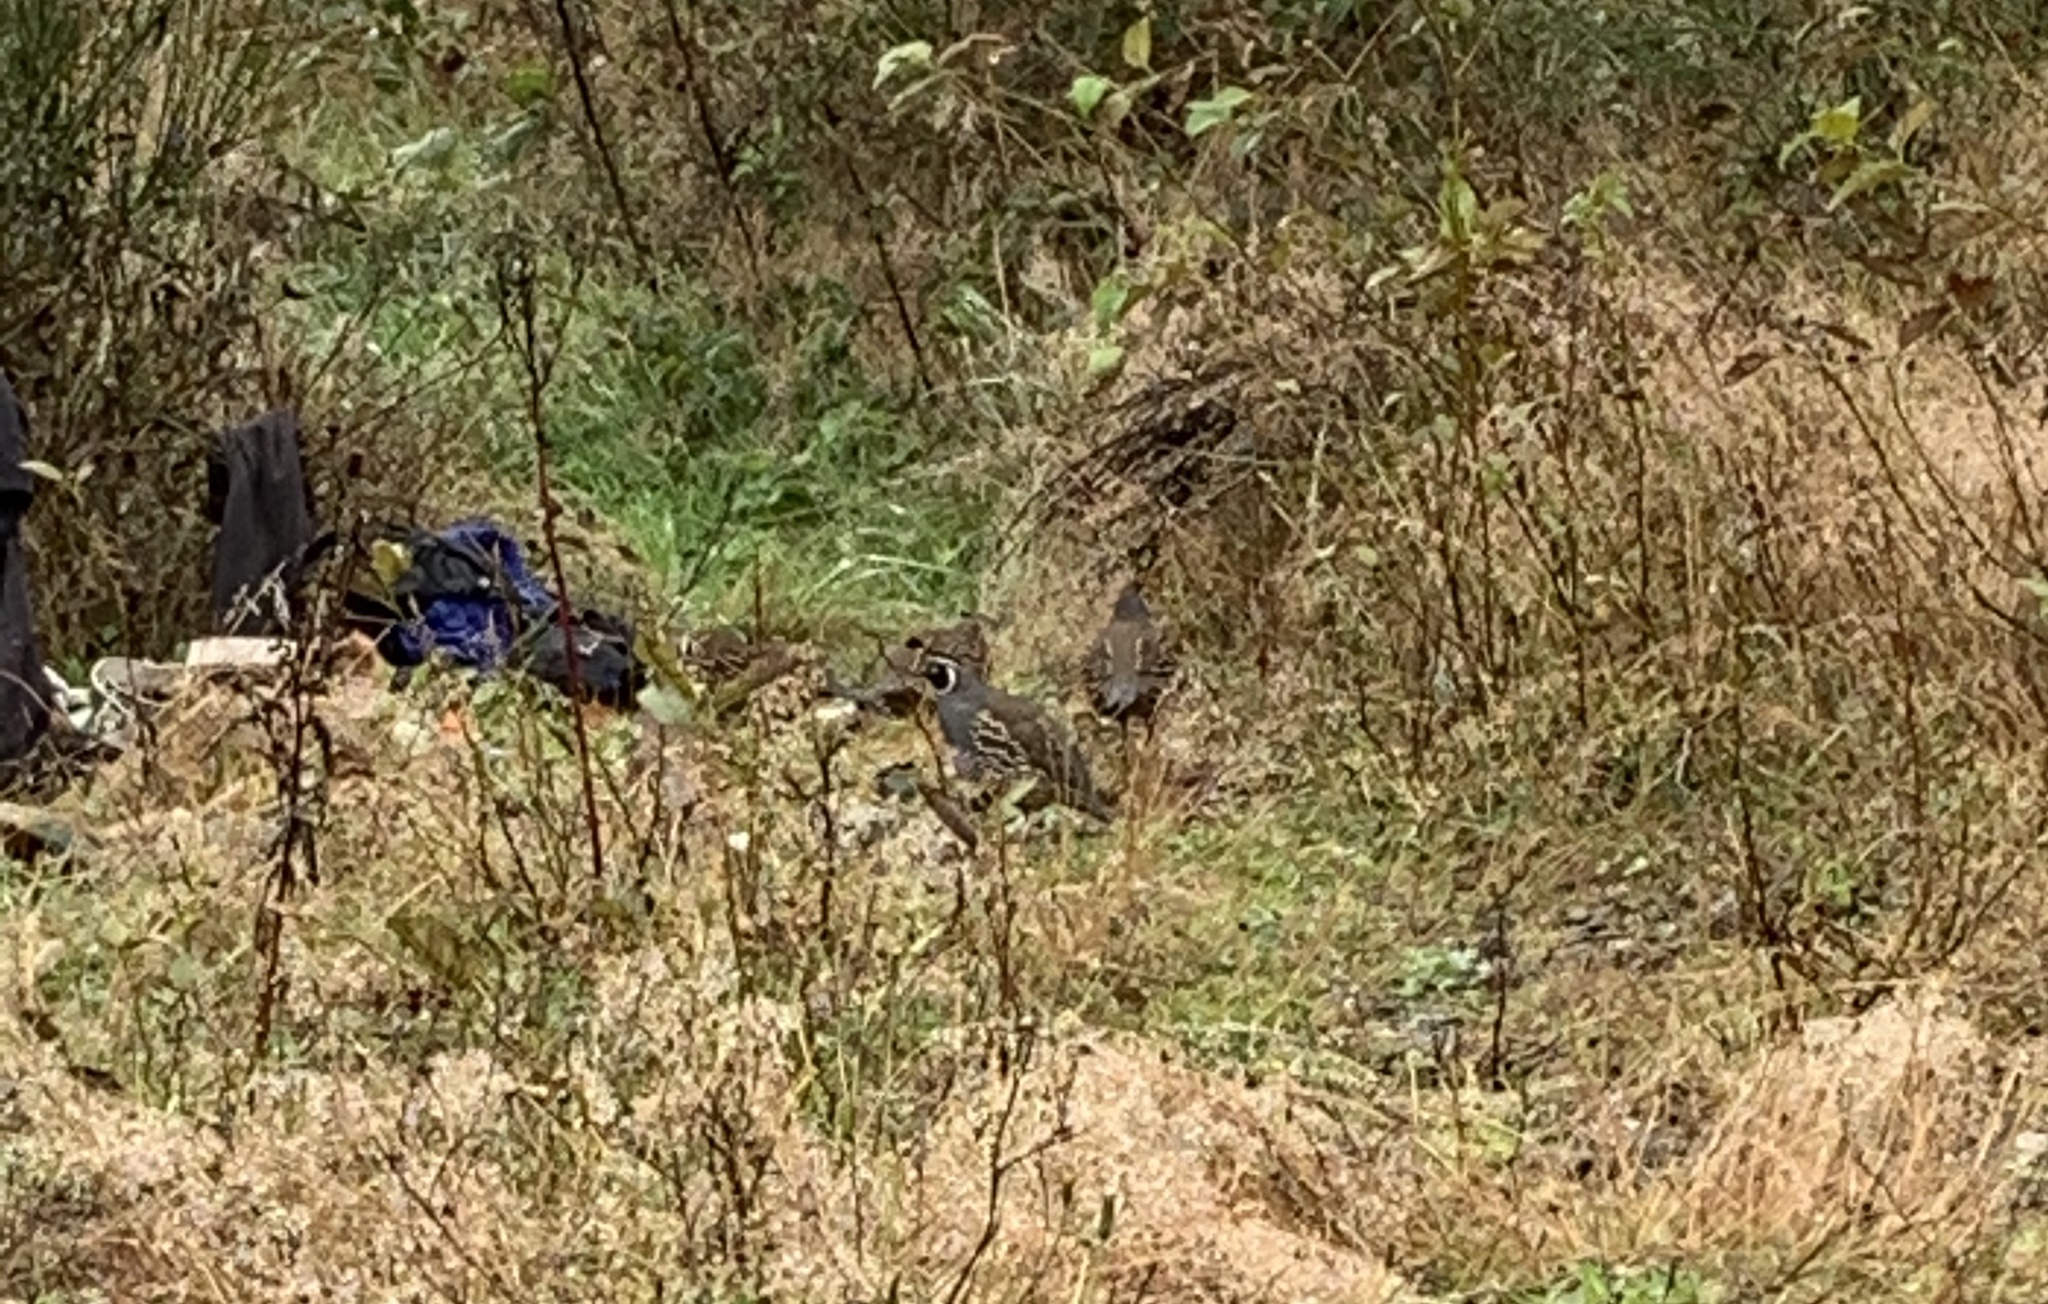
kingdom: Animalia
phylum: Chordata
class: Aves
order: Galliformes
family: Odontophoridae
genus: Callipepla
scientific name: Callipepla californica
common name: California quail
